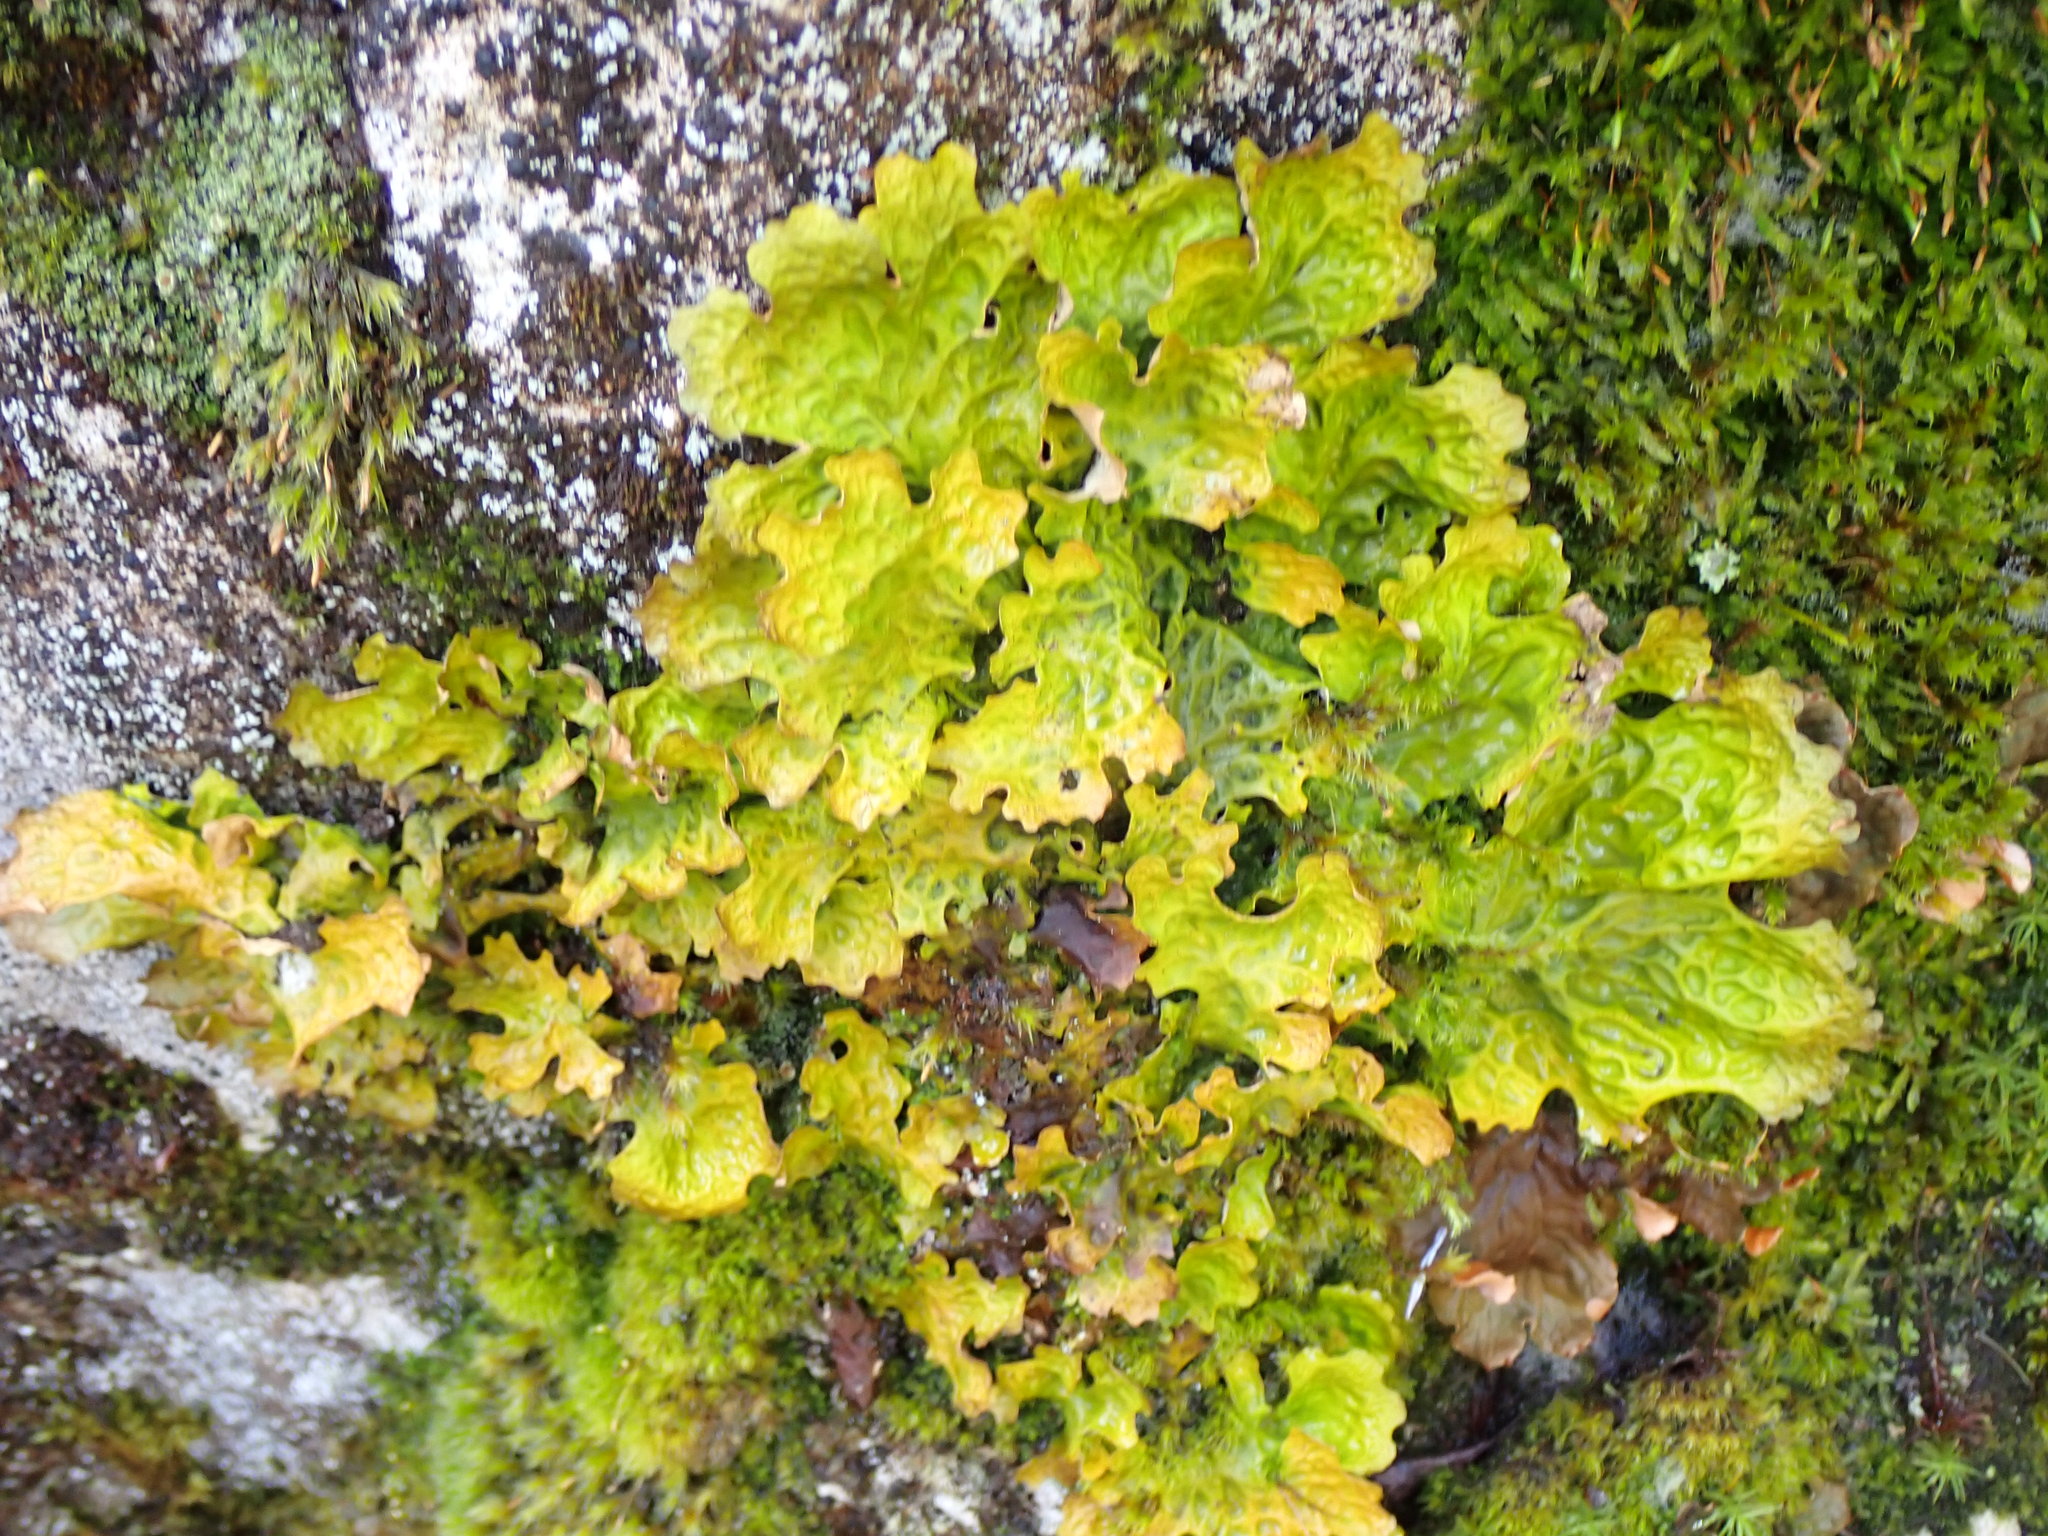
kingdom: Fungi
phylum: Ascomycota
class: Lecanoromycetes
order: Peltigerales
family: Lobariaceae
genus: Lobaria
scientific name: Lobaria linita
